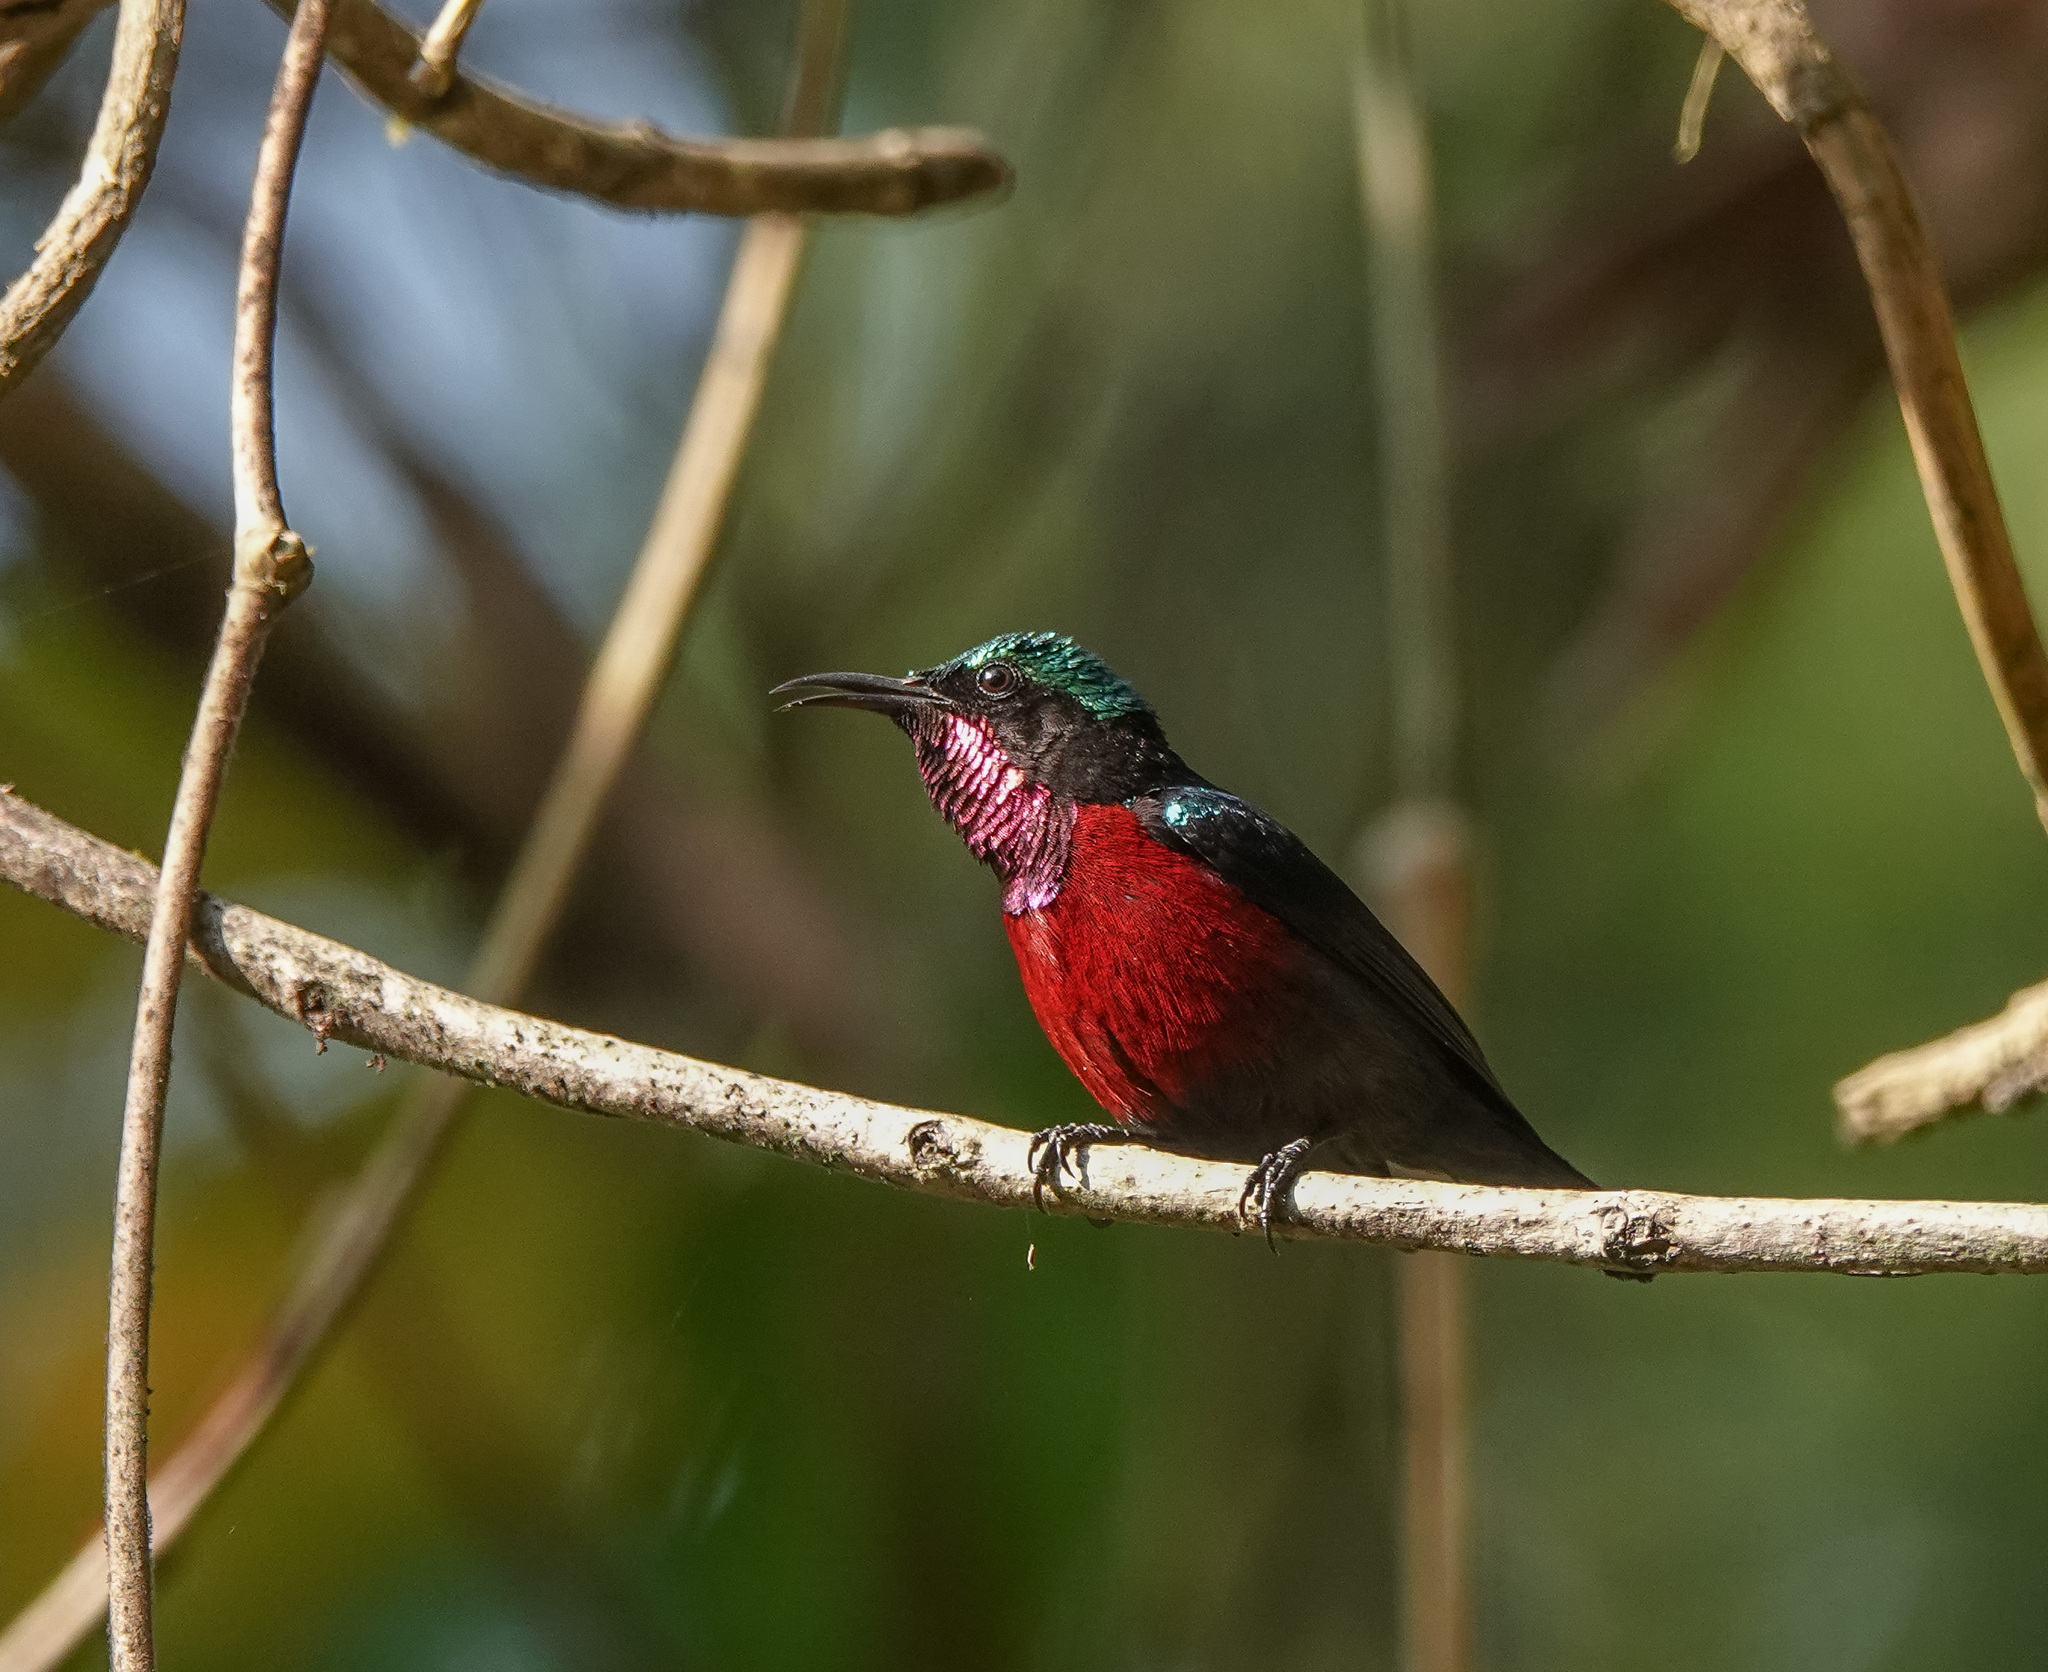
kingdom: Animalia
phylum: Chordata
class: Aves
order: Passeriformes
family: Nectariniidae
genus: Leptocoma
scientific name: Leptocoma brasiliana
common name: Van hasselt's sunbird
